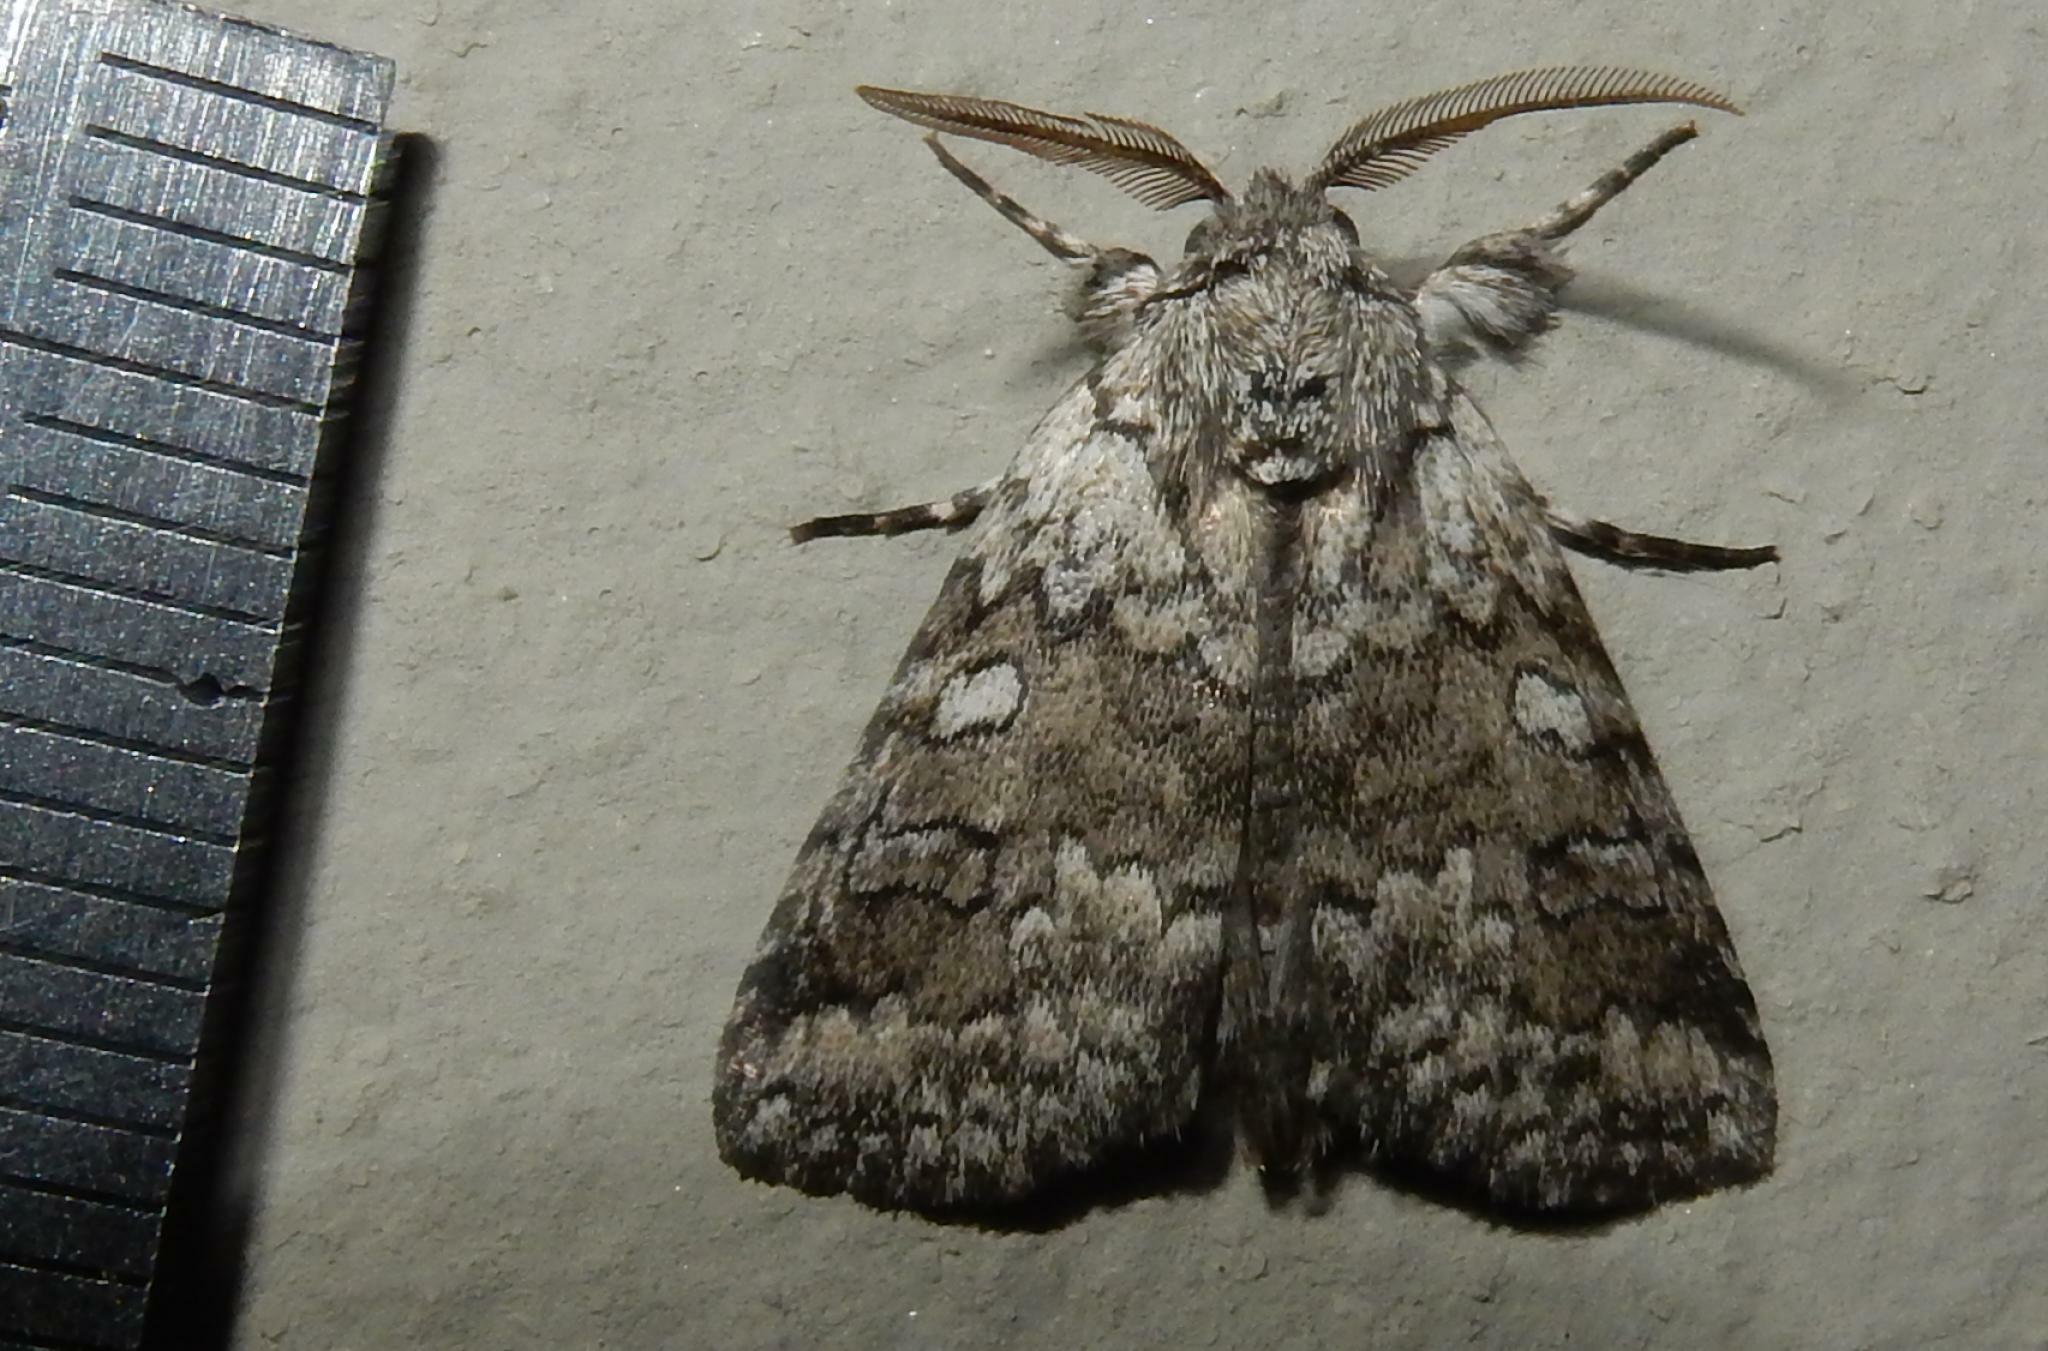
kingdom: Animalia
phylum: Arthropoda
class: Insecta
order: Lepidoptera
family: Erebidae
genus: Dasychira
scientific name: Dasychira Dicranuropsis vilis
